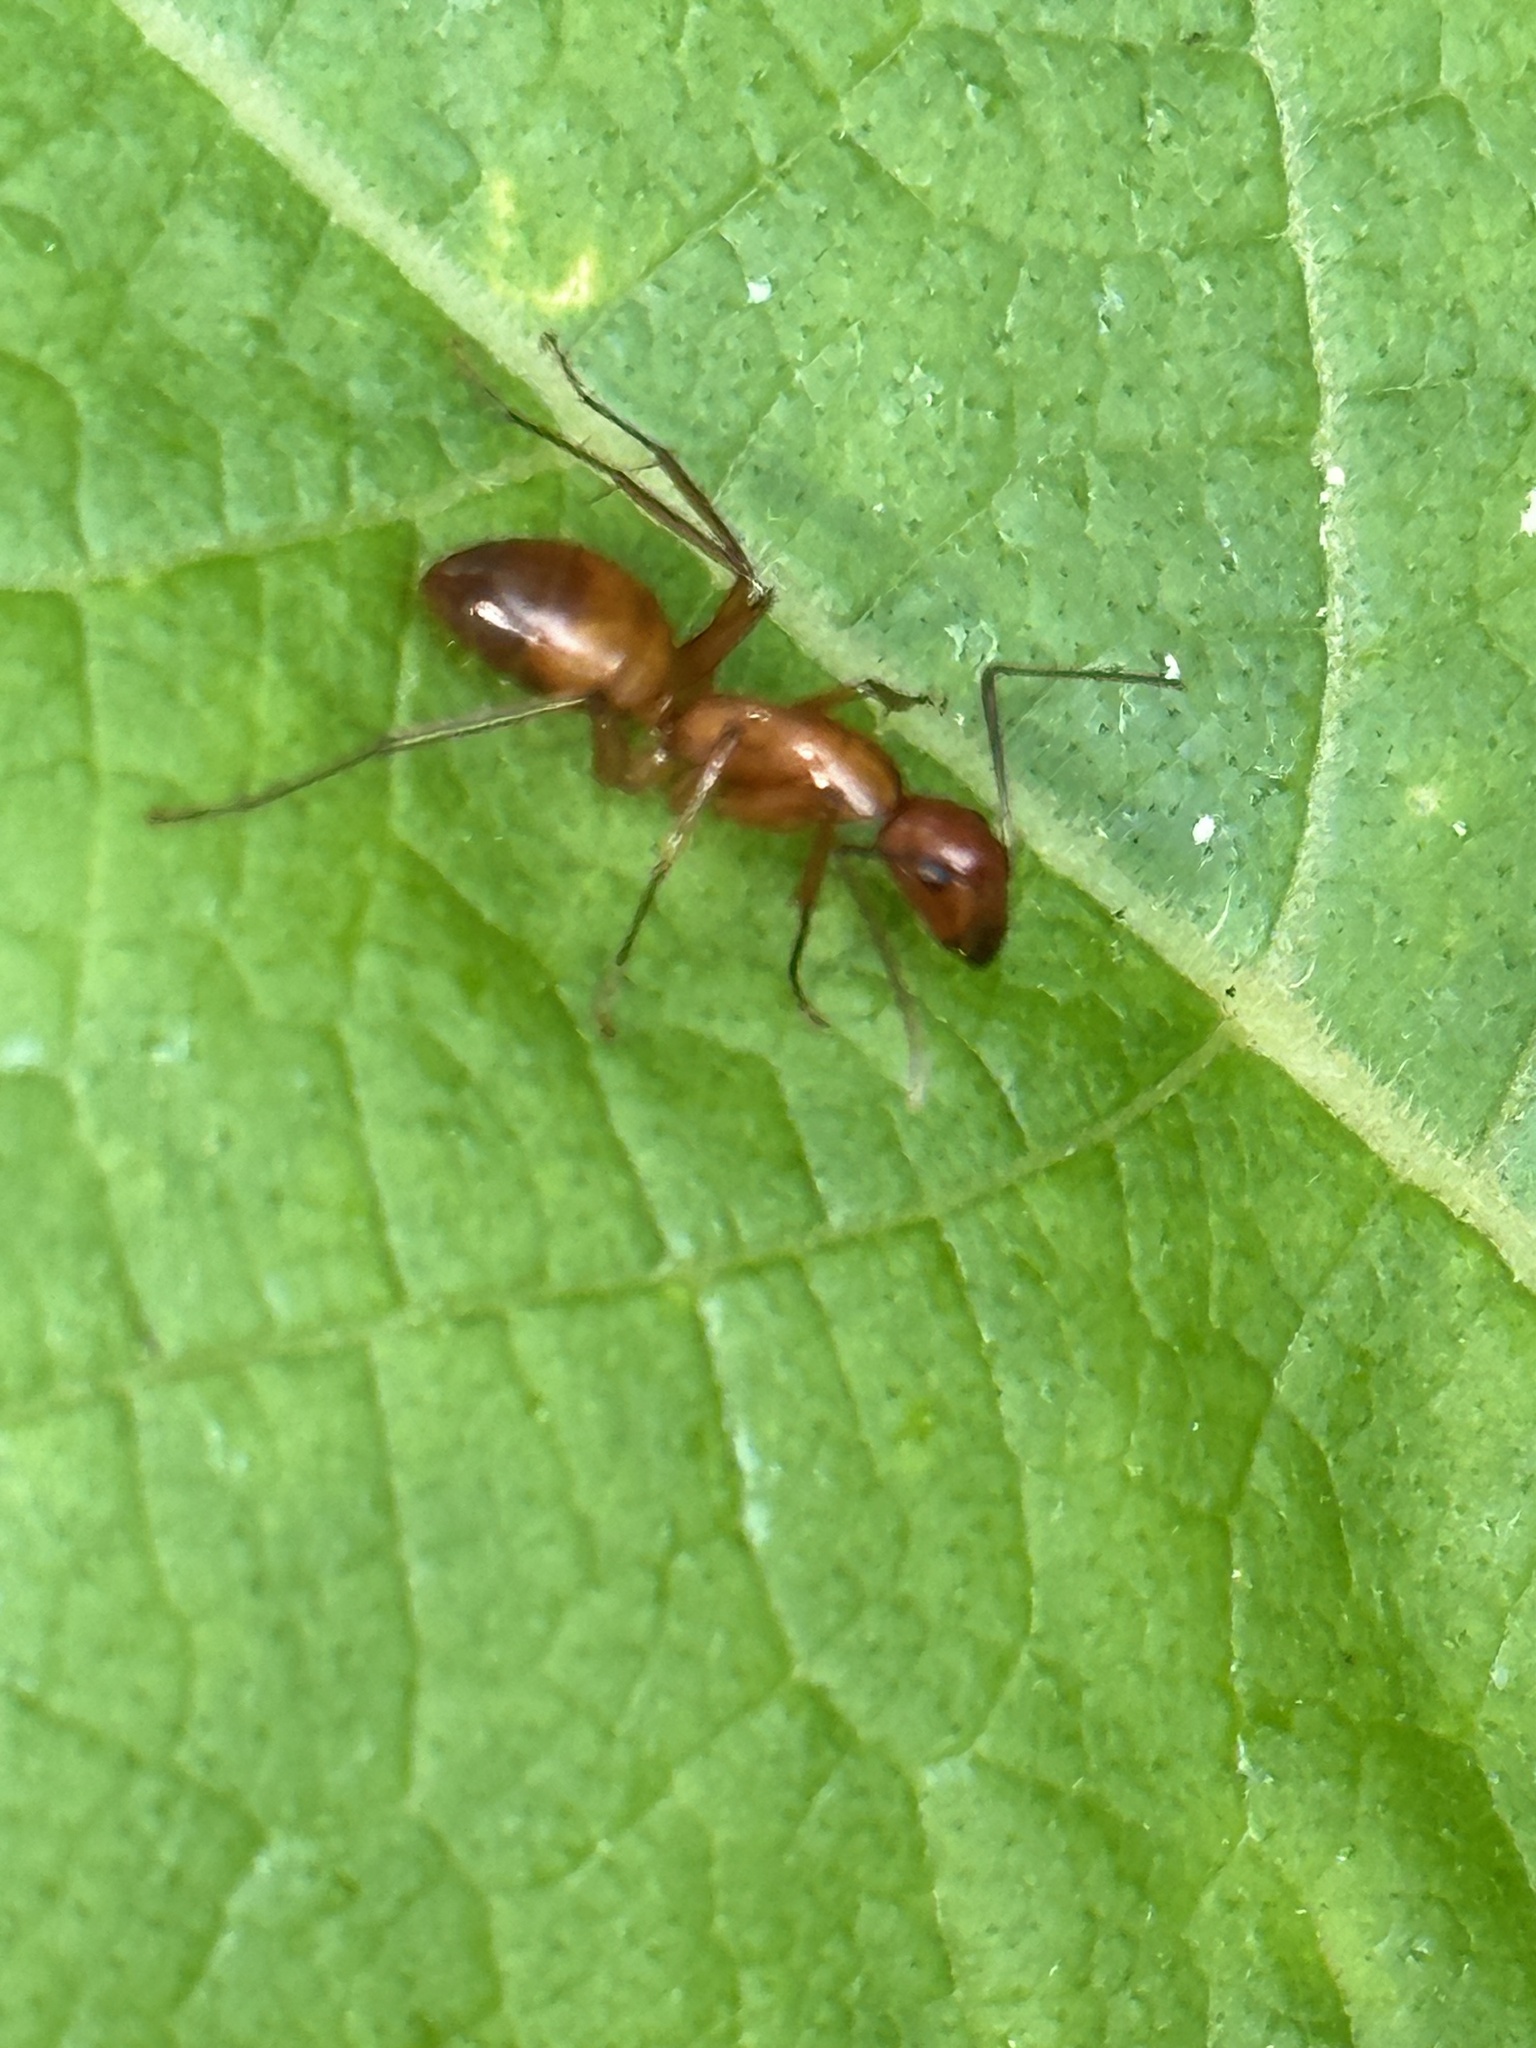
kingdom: Animalia
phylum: Arthropoda
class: Insecta
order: Hymenoptera
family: Formicidae
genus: Camponotus
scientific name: Camponotus castaneus
